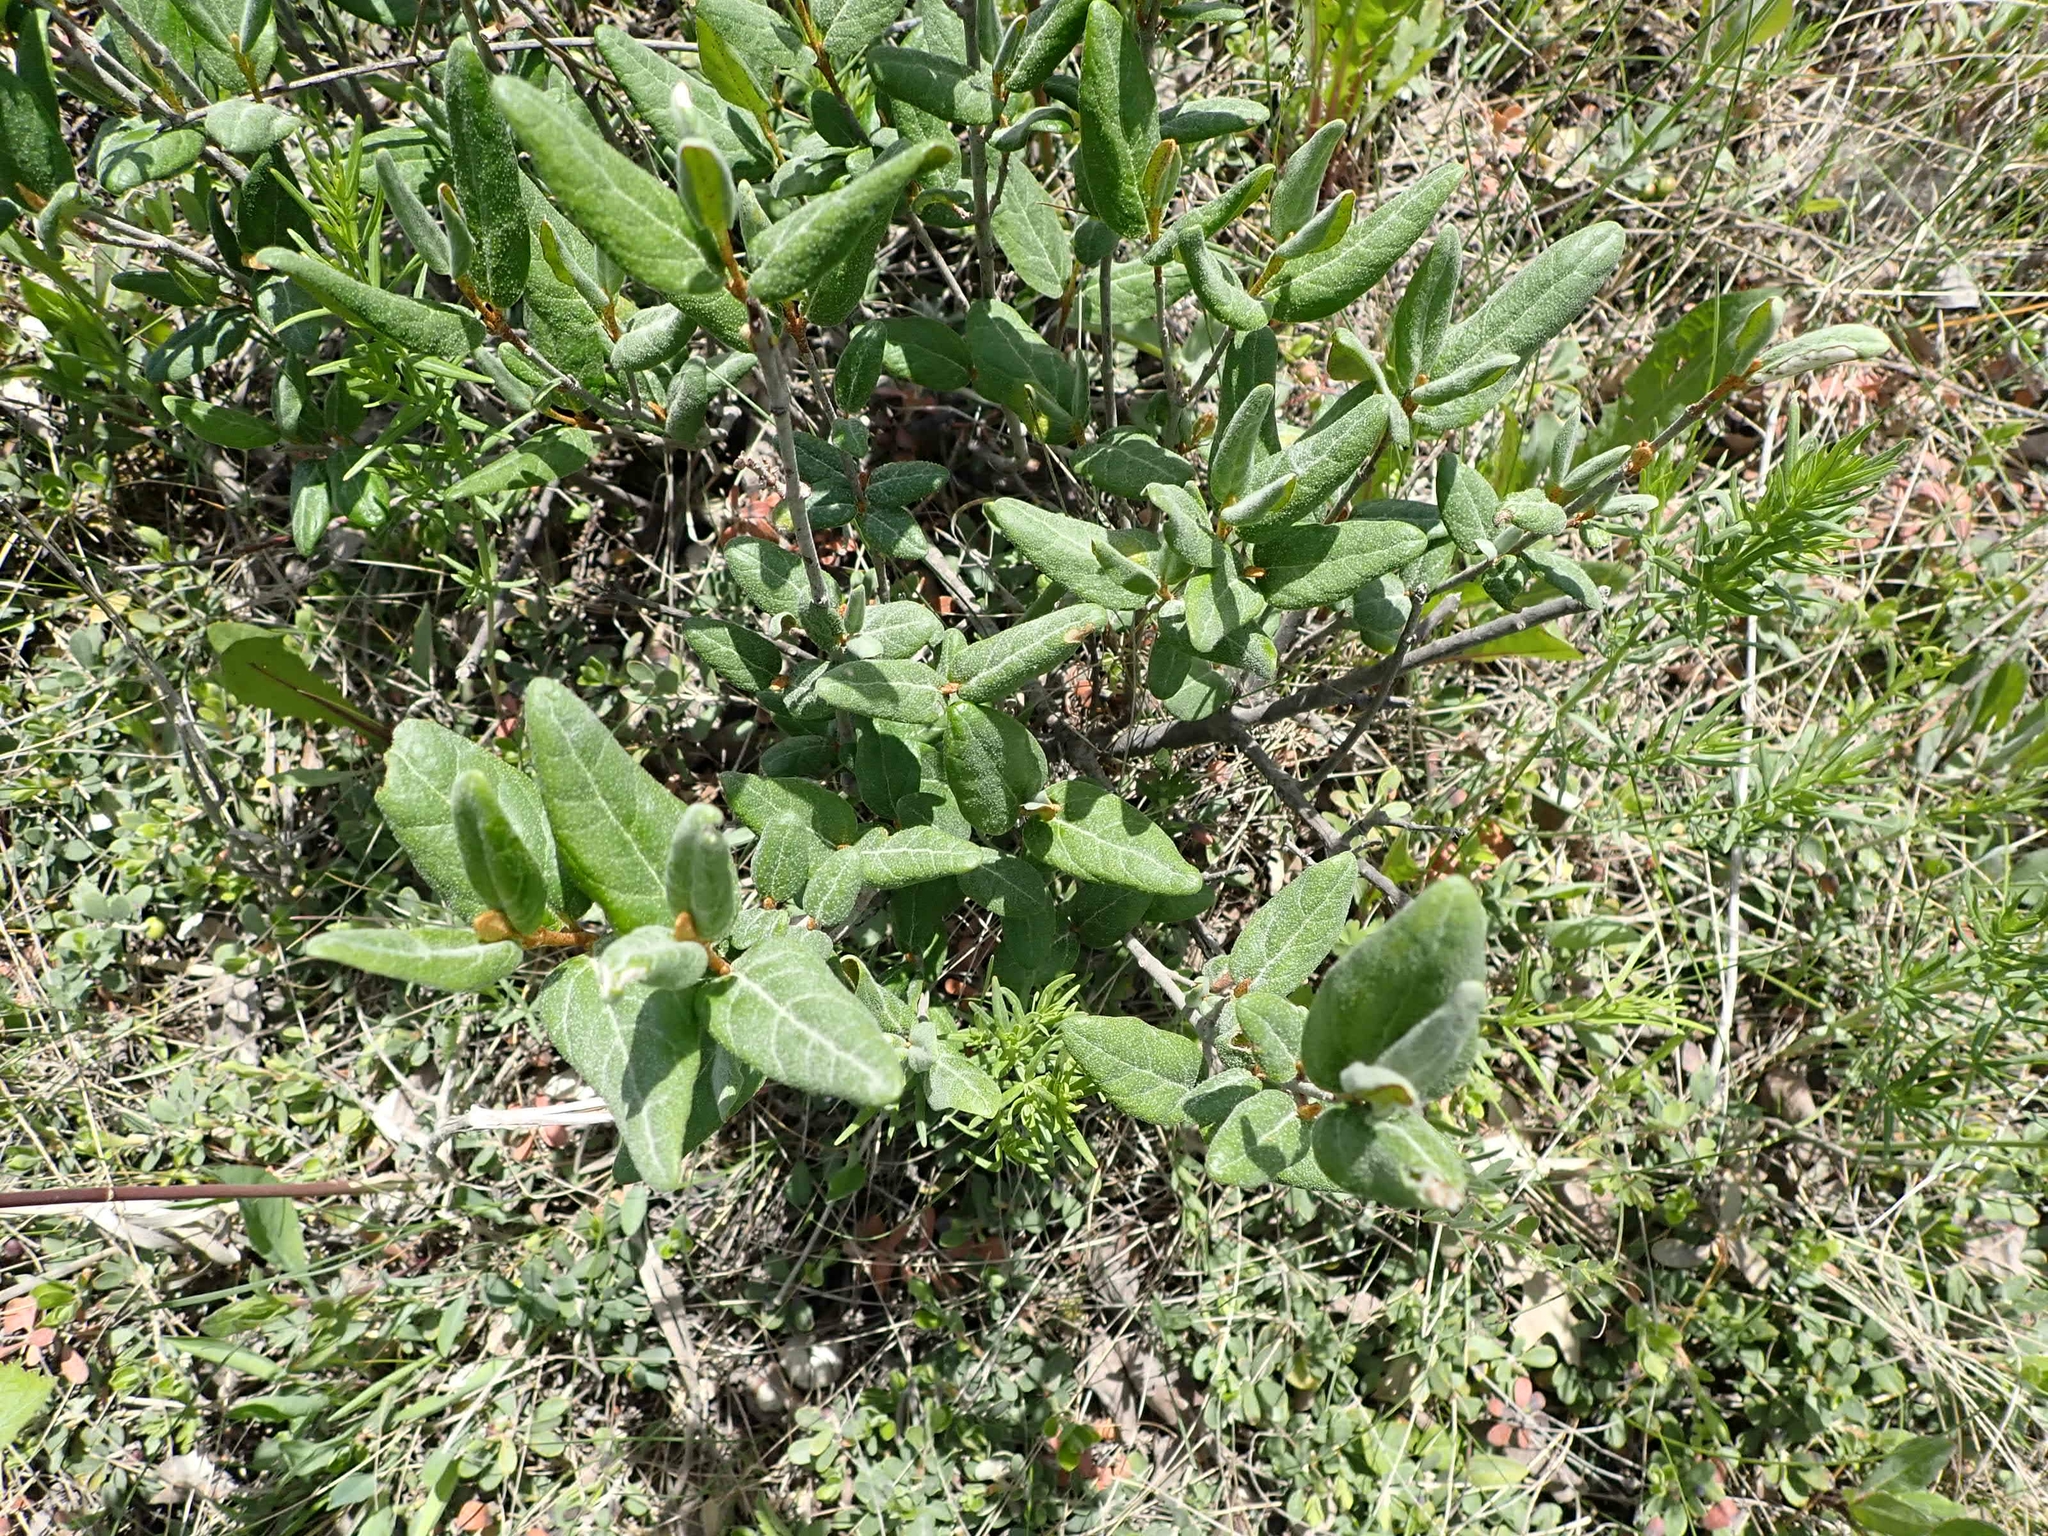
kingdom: Plantae
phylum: Tracheophyta
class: Magnoliopsida
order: Rosales
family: Elaeagnaceae
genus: Shepherdia
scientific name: Shepherdia canadensis
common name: Soapberry
